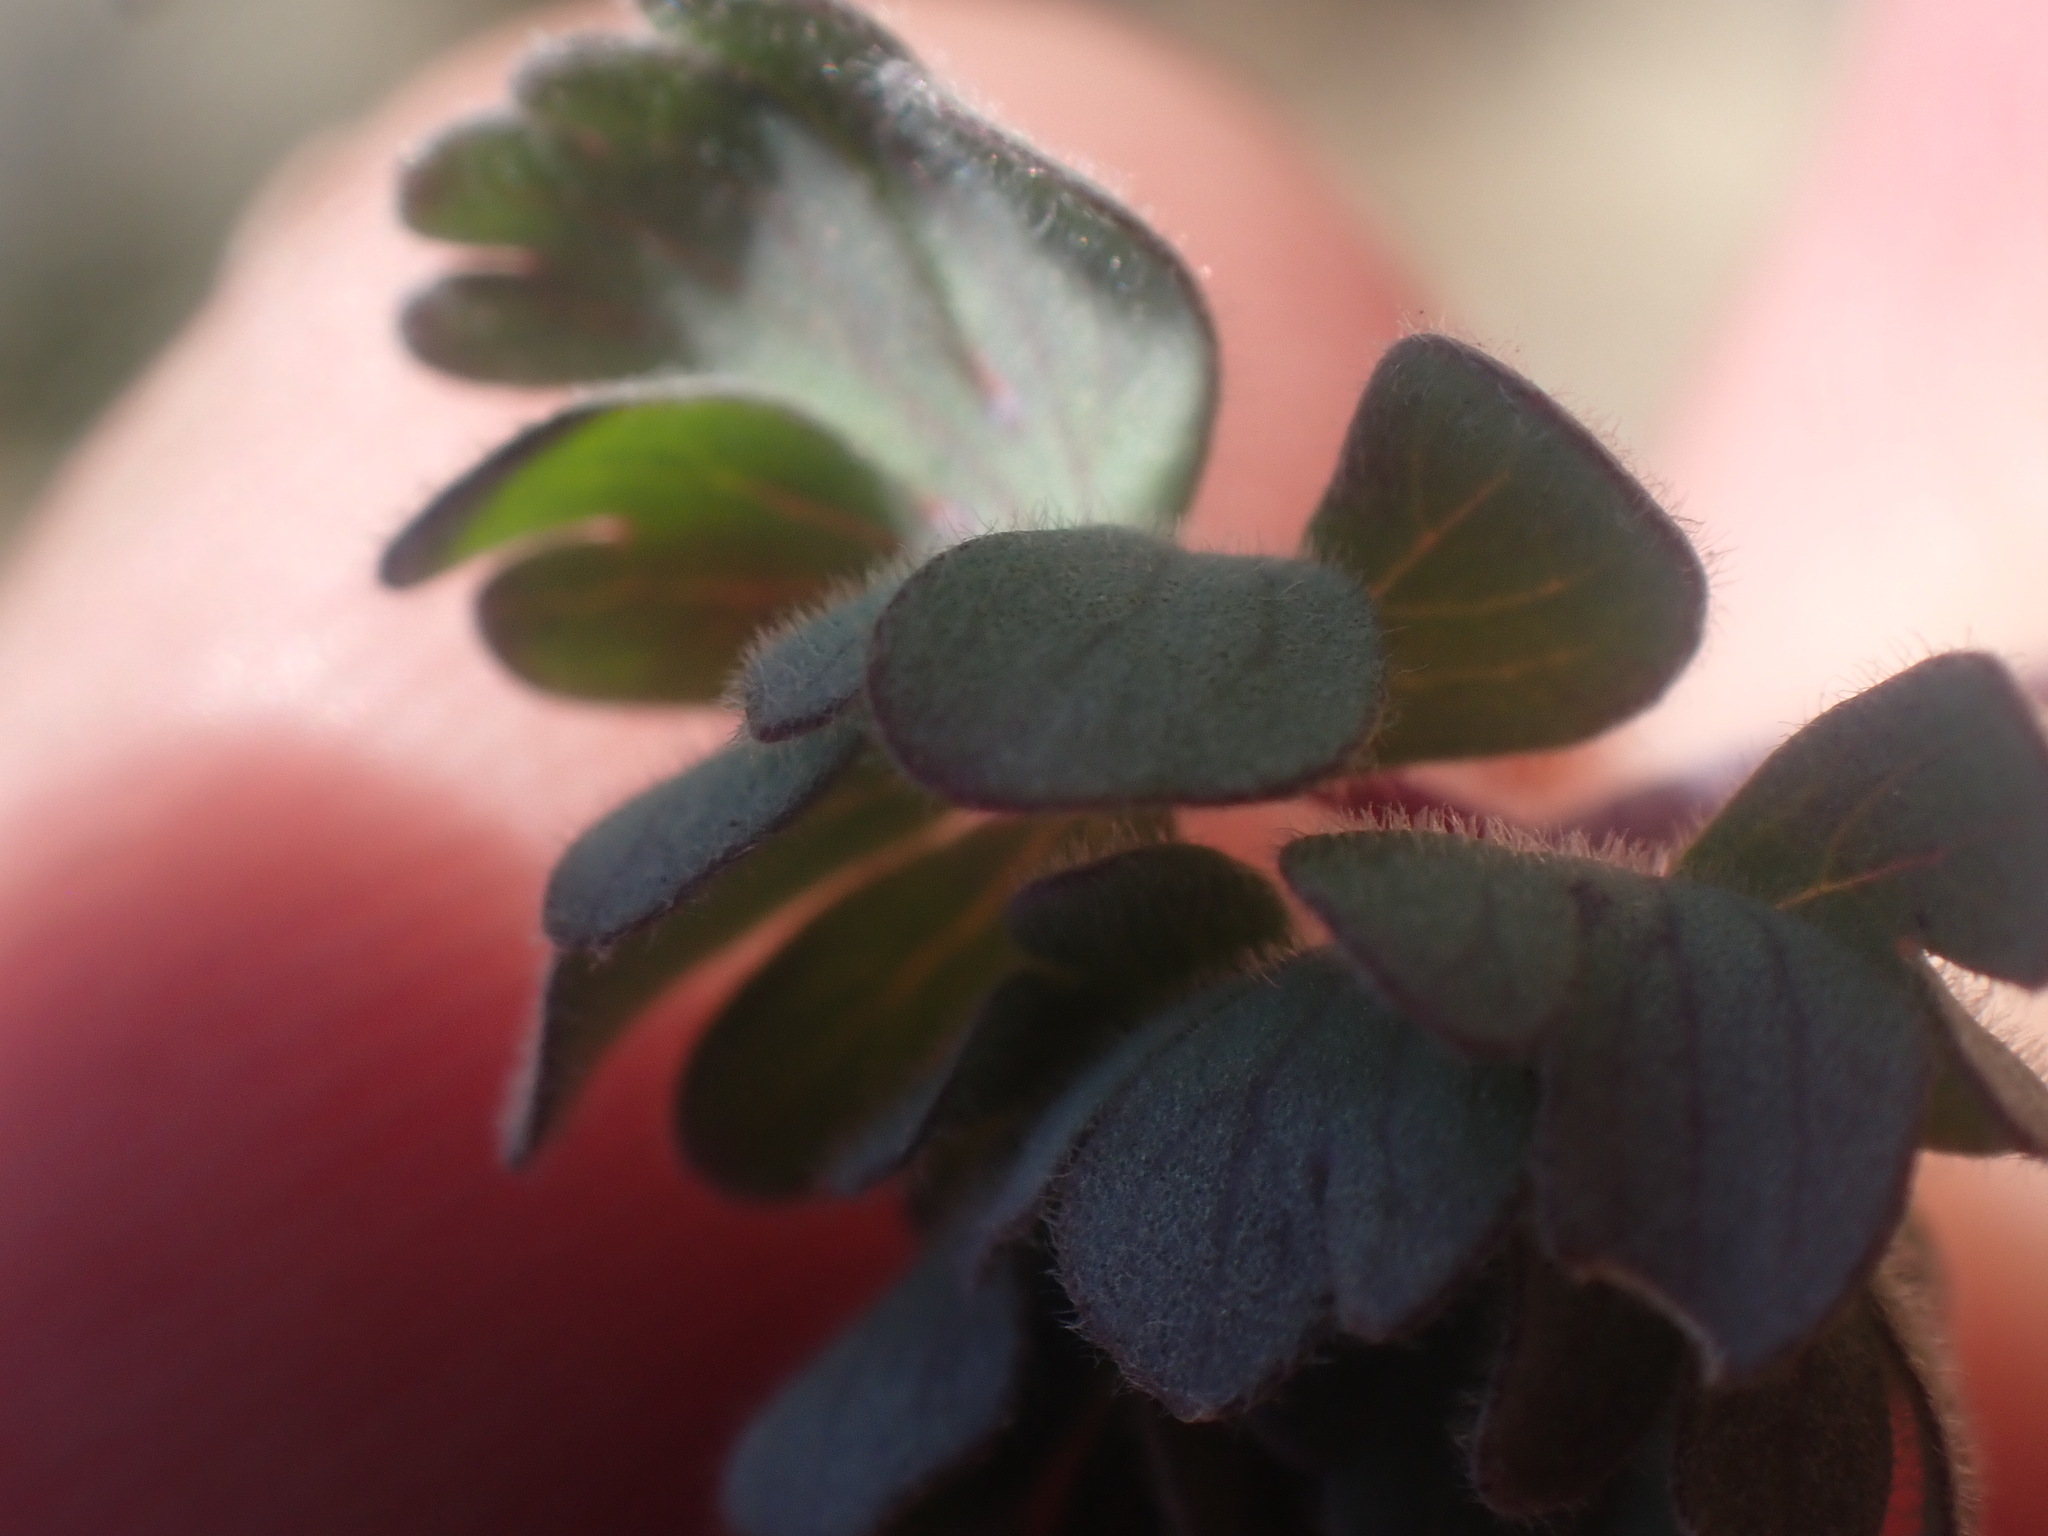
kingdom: Plantae
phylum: Tracheophyta
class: Magnoliopsida
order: Ranunculales
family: Ranunculaceae
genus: Aquilegia
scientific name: Aquilegia jonesii
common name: Jones' columbine
